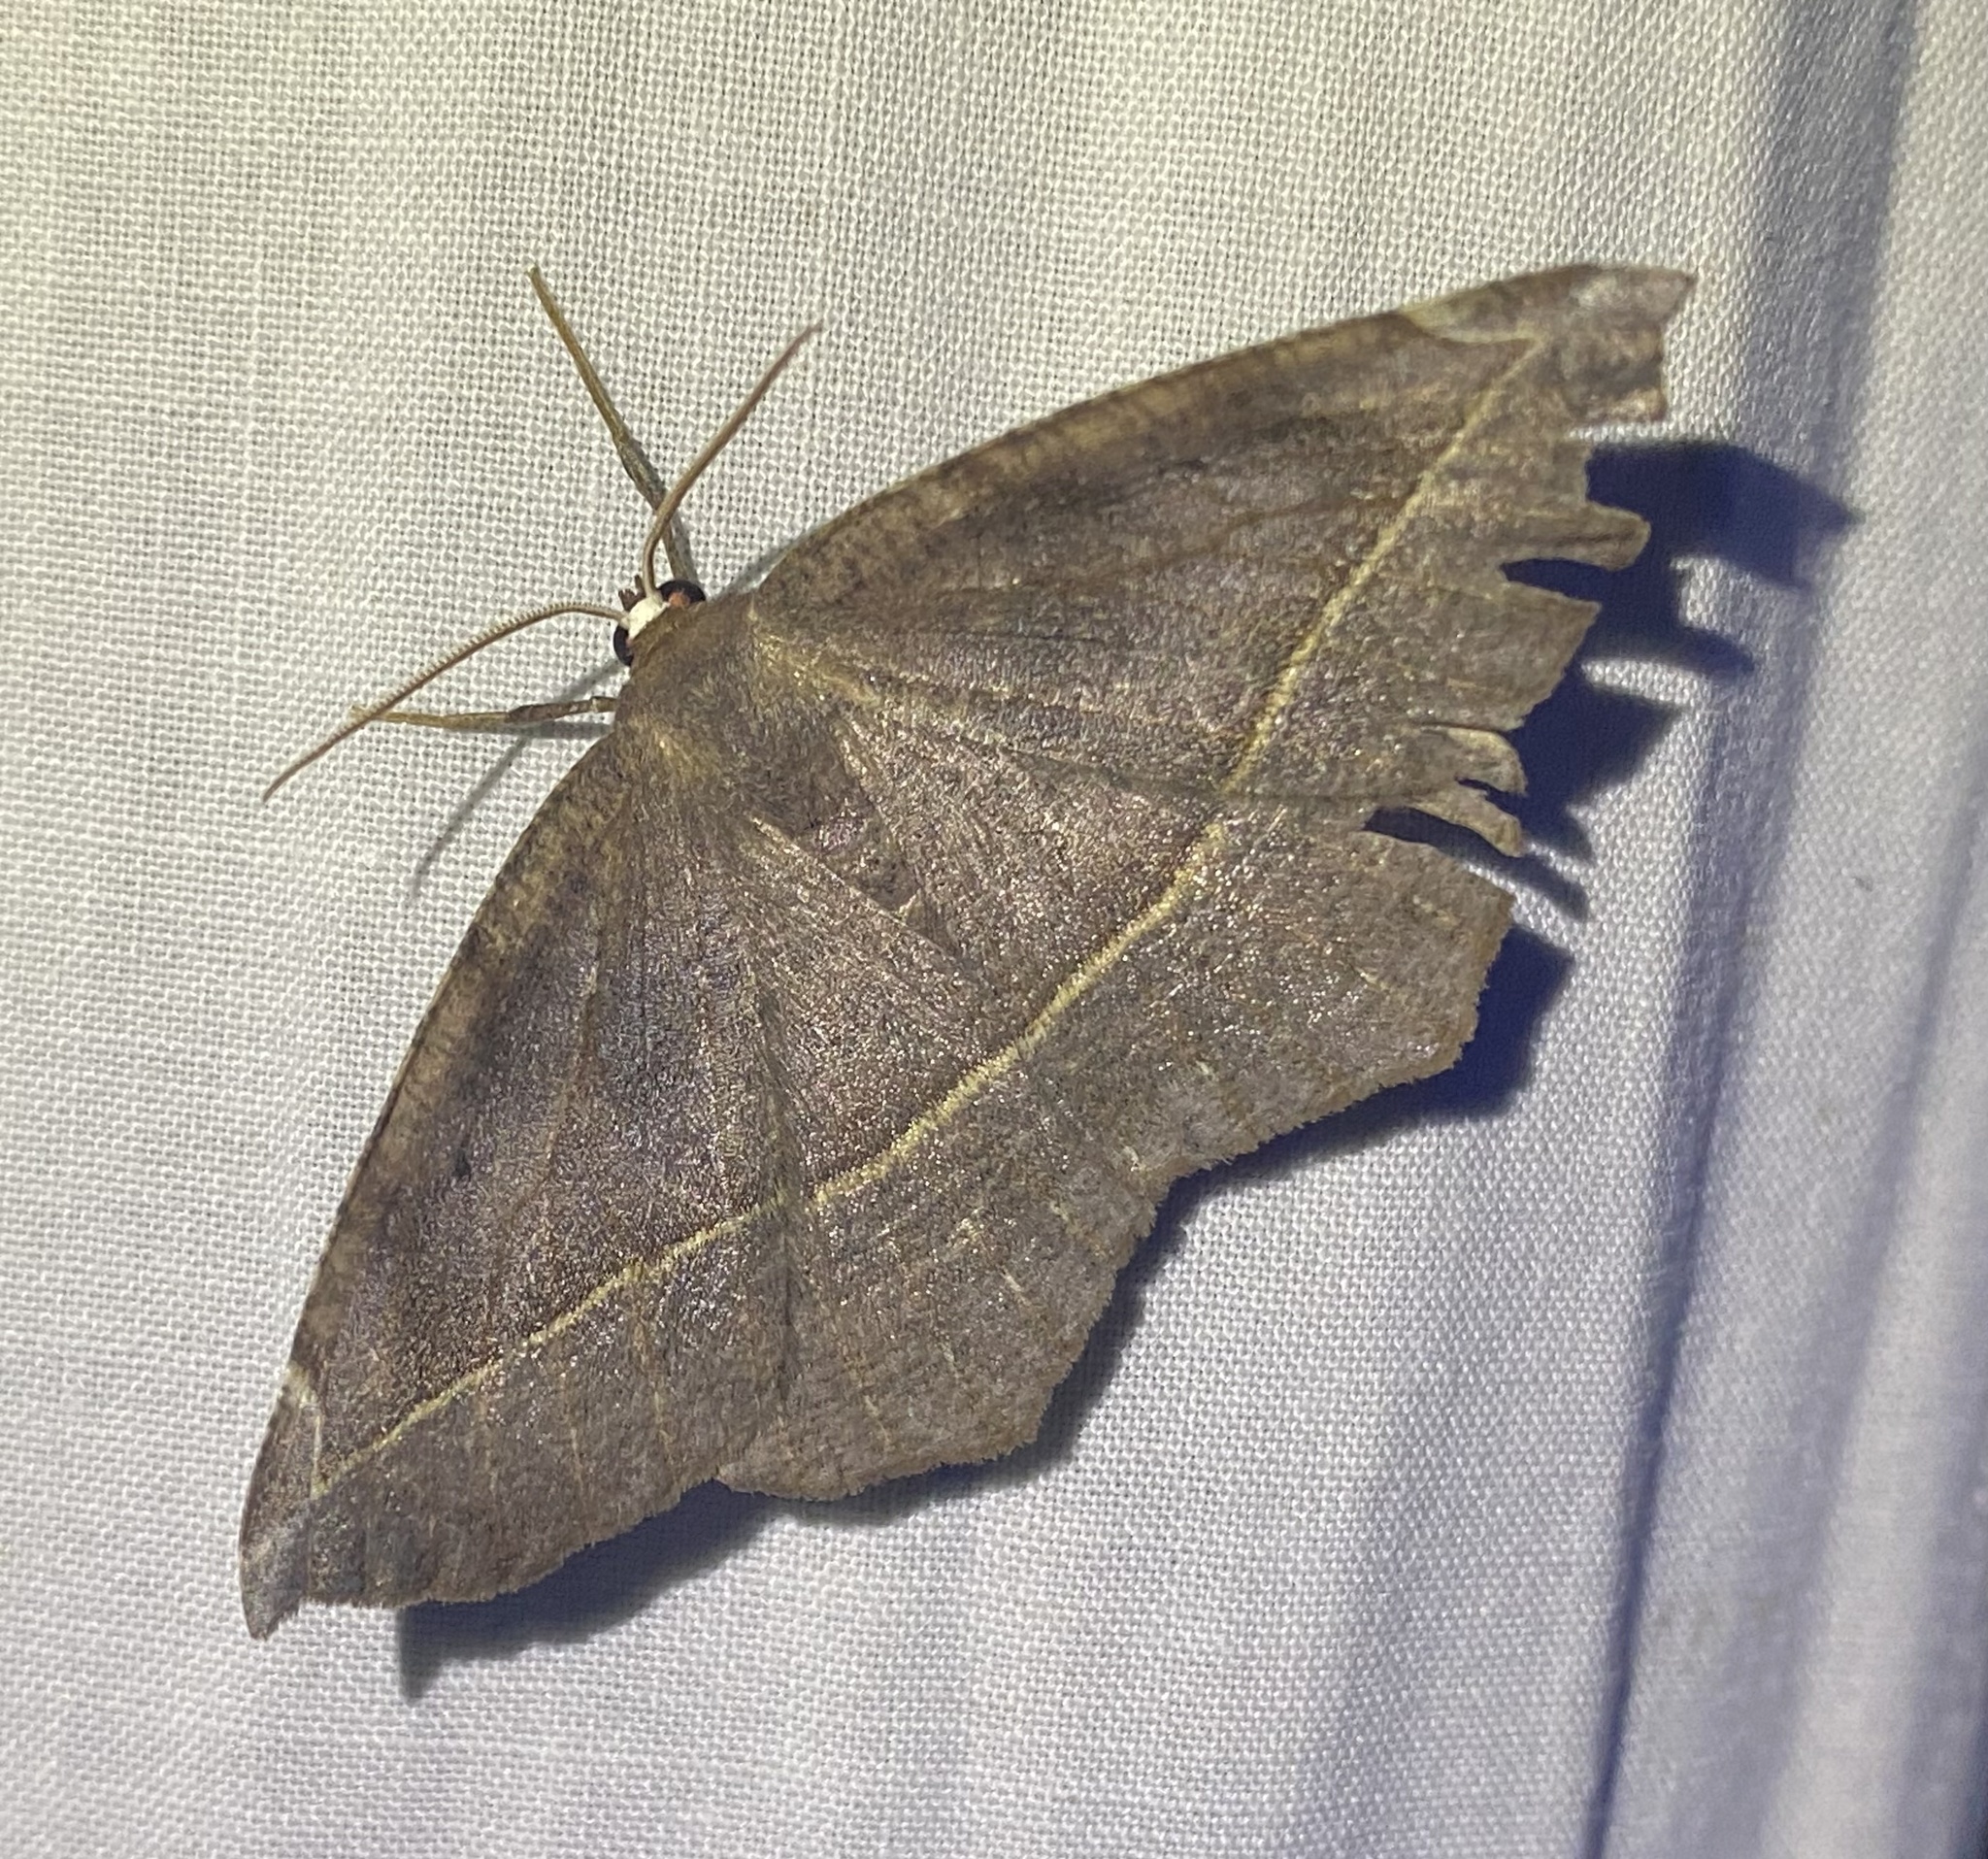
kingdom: Animalia
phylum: Arthropoda
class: Insecta
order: Lepidoptera
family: Geometridae
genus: Eutrapela
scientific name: Eutrapela clemataria
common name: Curved-toothed geometer
